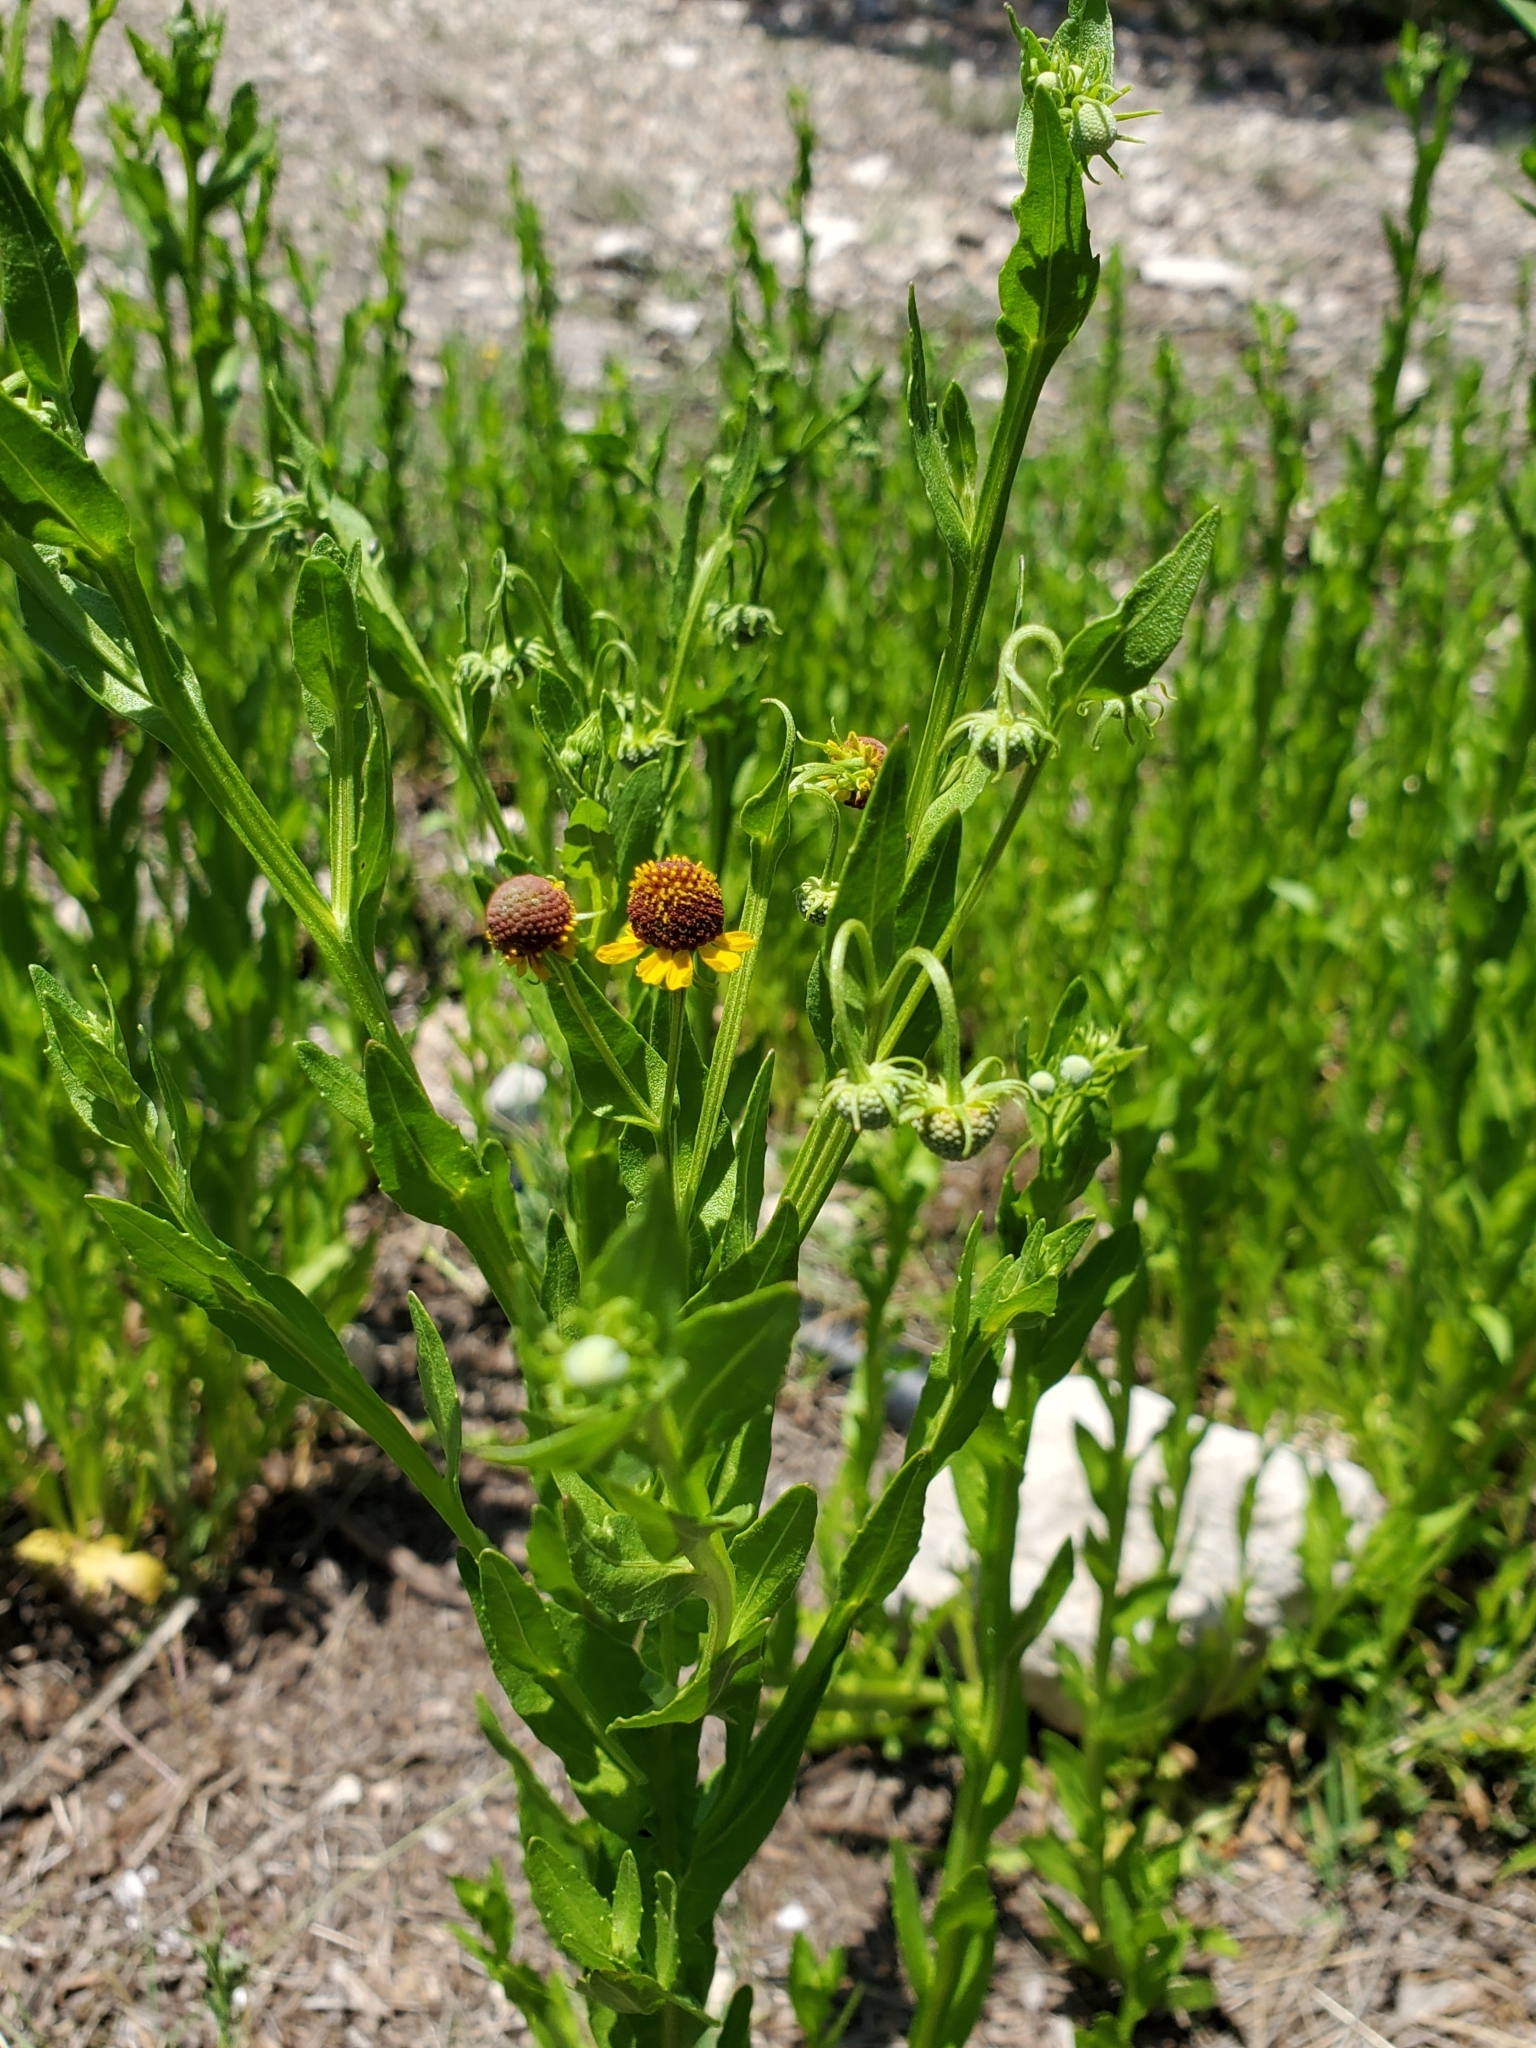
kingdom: Plantae
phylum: Tracheophyta
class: Magnoliopsida
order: Asterales
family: Asteraceae
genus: Helenium
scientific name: Helenium microcephalum
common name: Smallhead sneezeweed
